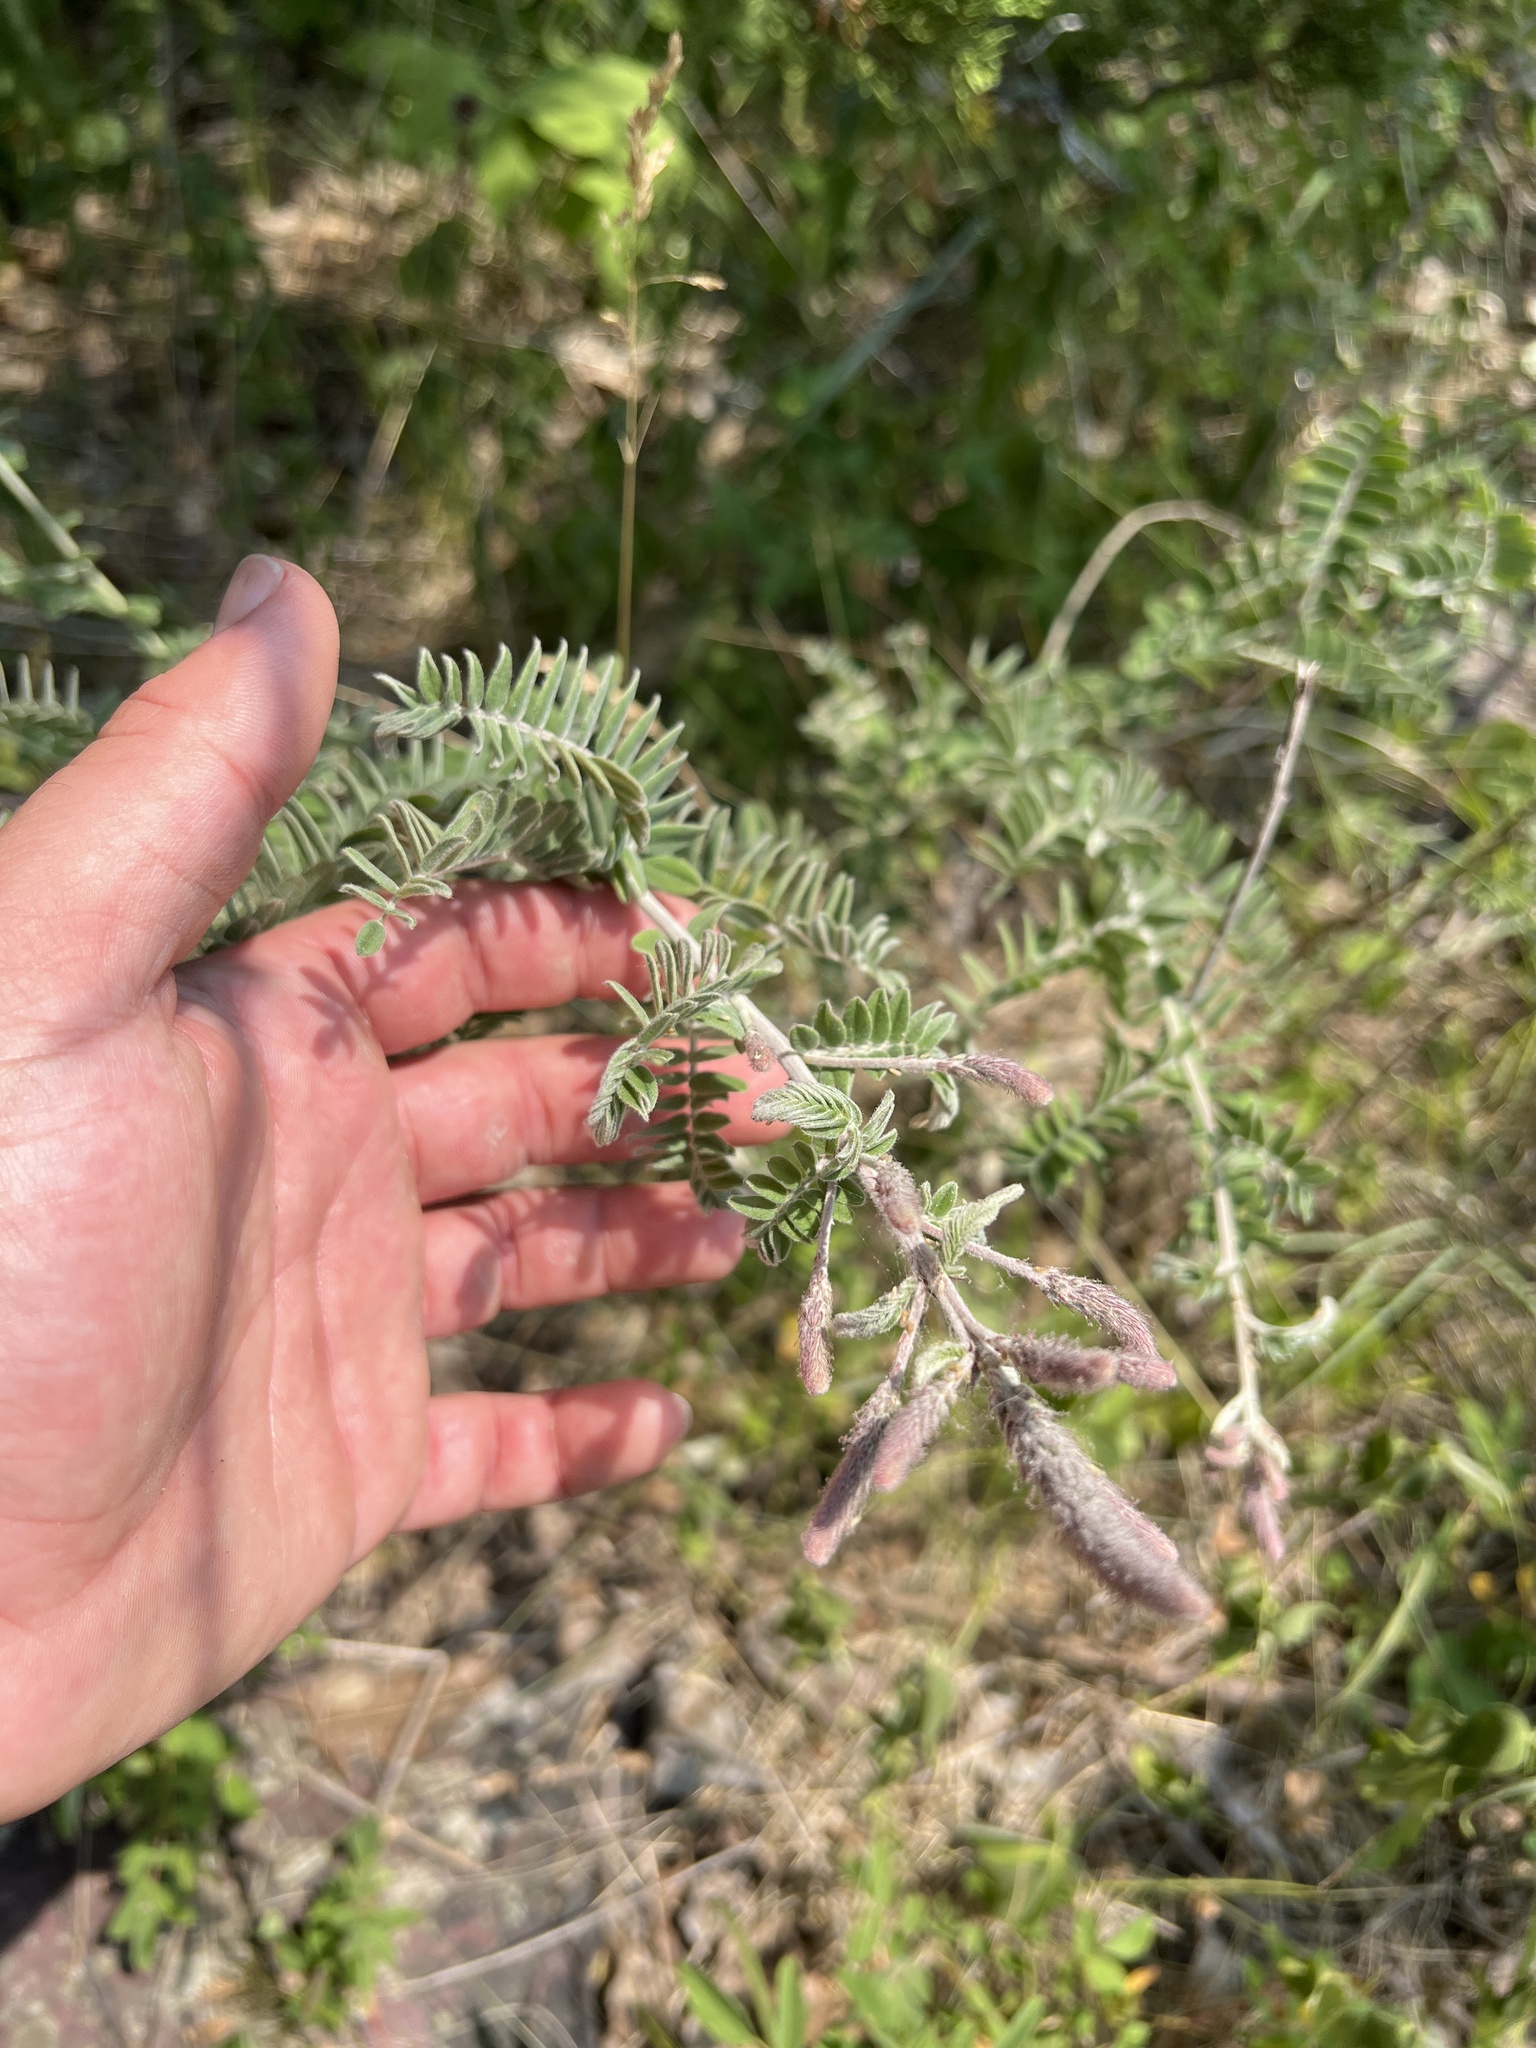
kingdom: Plantae
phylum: Tracheophyta
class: Magnoliopsida
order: Fabales
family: Fabaceae
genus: Amorpha
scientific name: Amorpha canescens
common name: Leadplant
